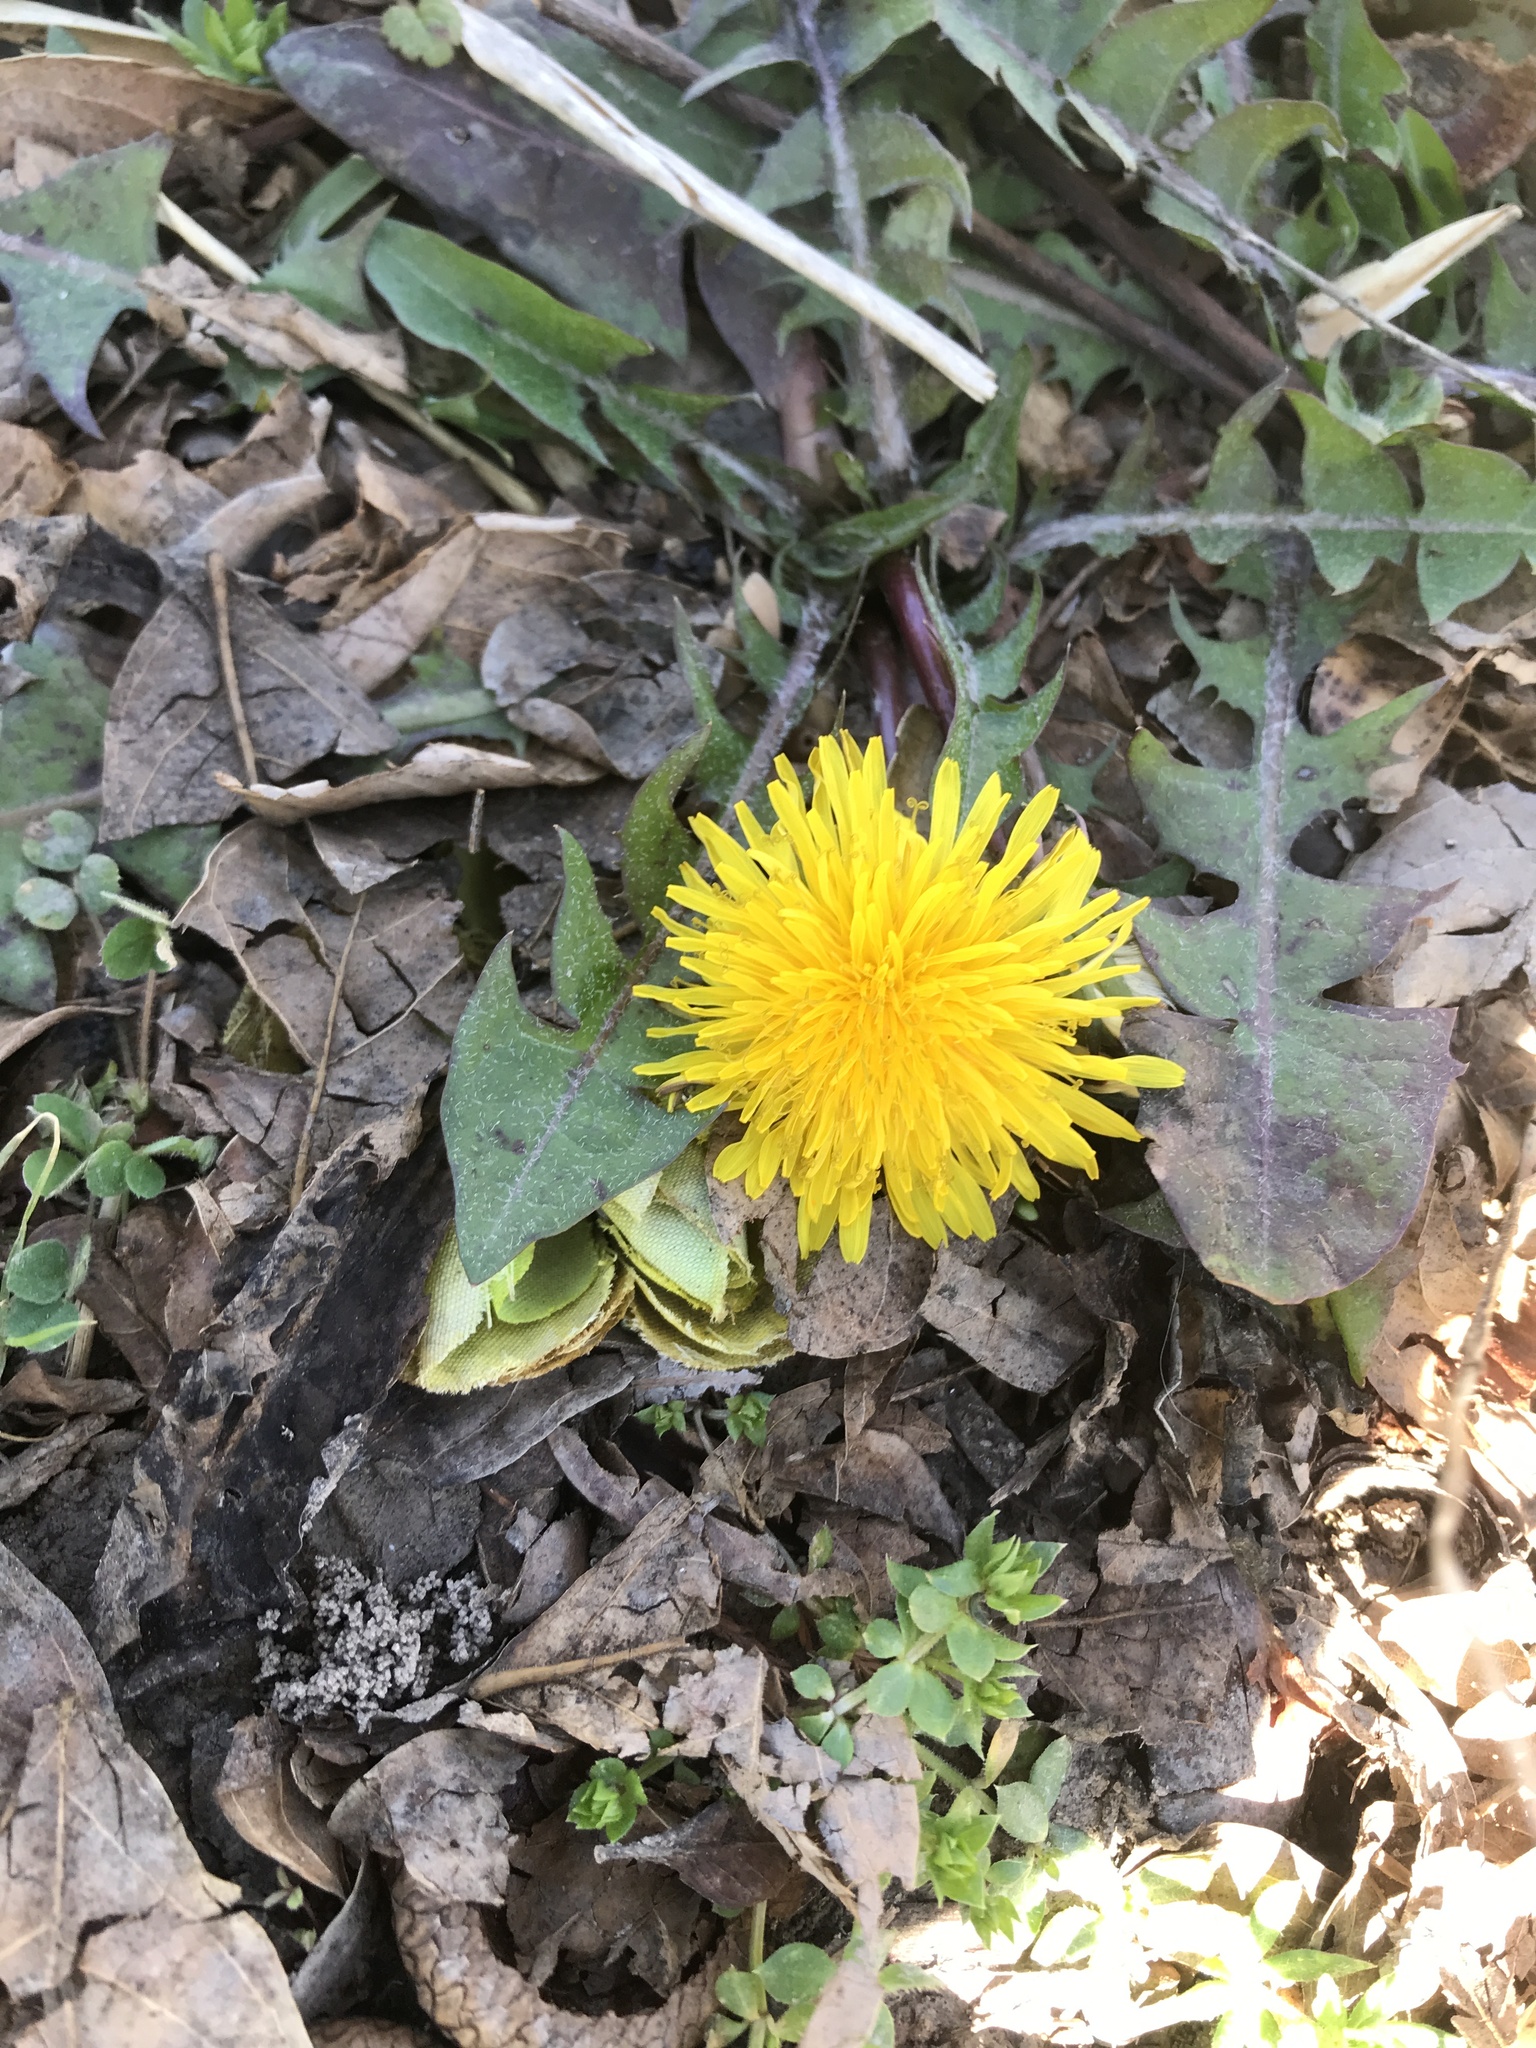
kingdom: Plantae
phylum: Tracheophyta
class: Magnoliopsida
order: Asterales
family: Asteraceae
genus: Taraxacum
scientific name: Taraxacum officinale
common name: Common dandelion
